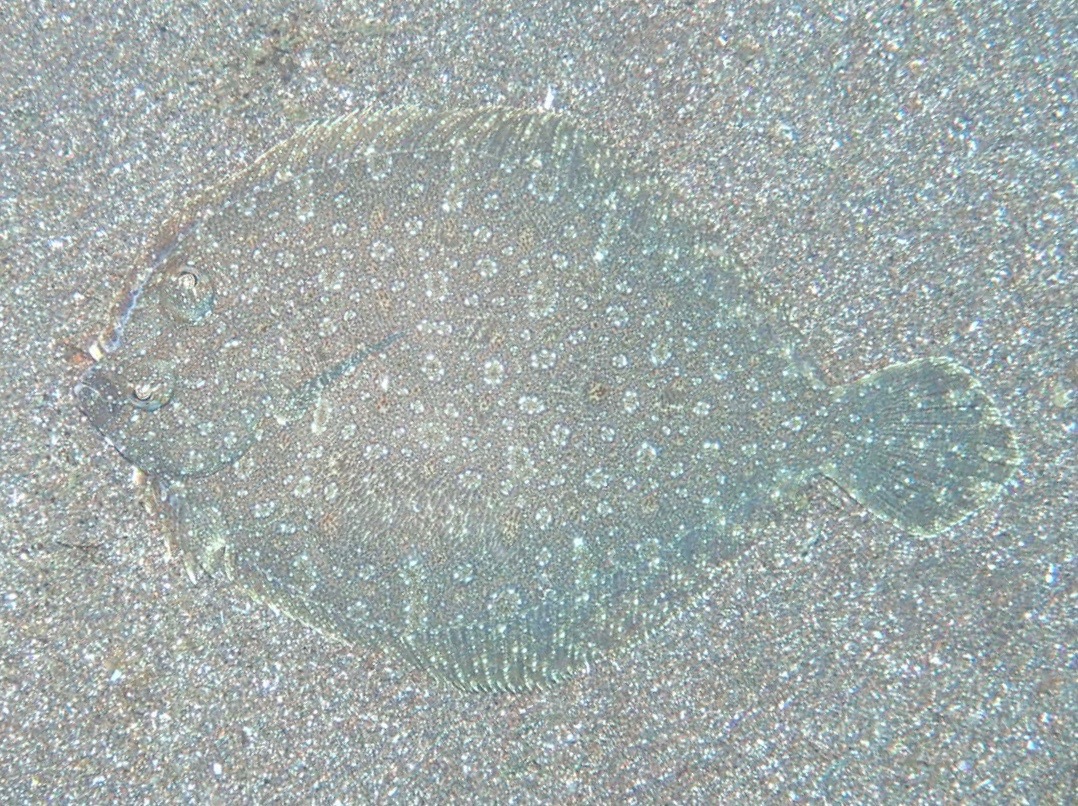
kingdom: Animalia
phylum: Chordata
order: Pleuronectiformes
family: Bothidae
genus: Bothus
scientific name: Bothus podas
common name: Wide-eyed flounder
